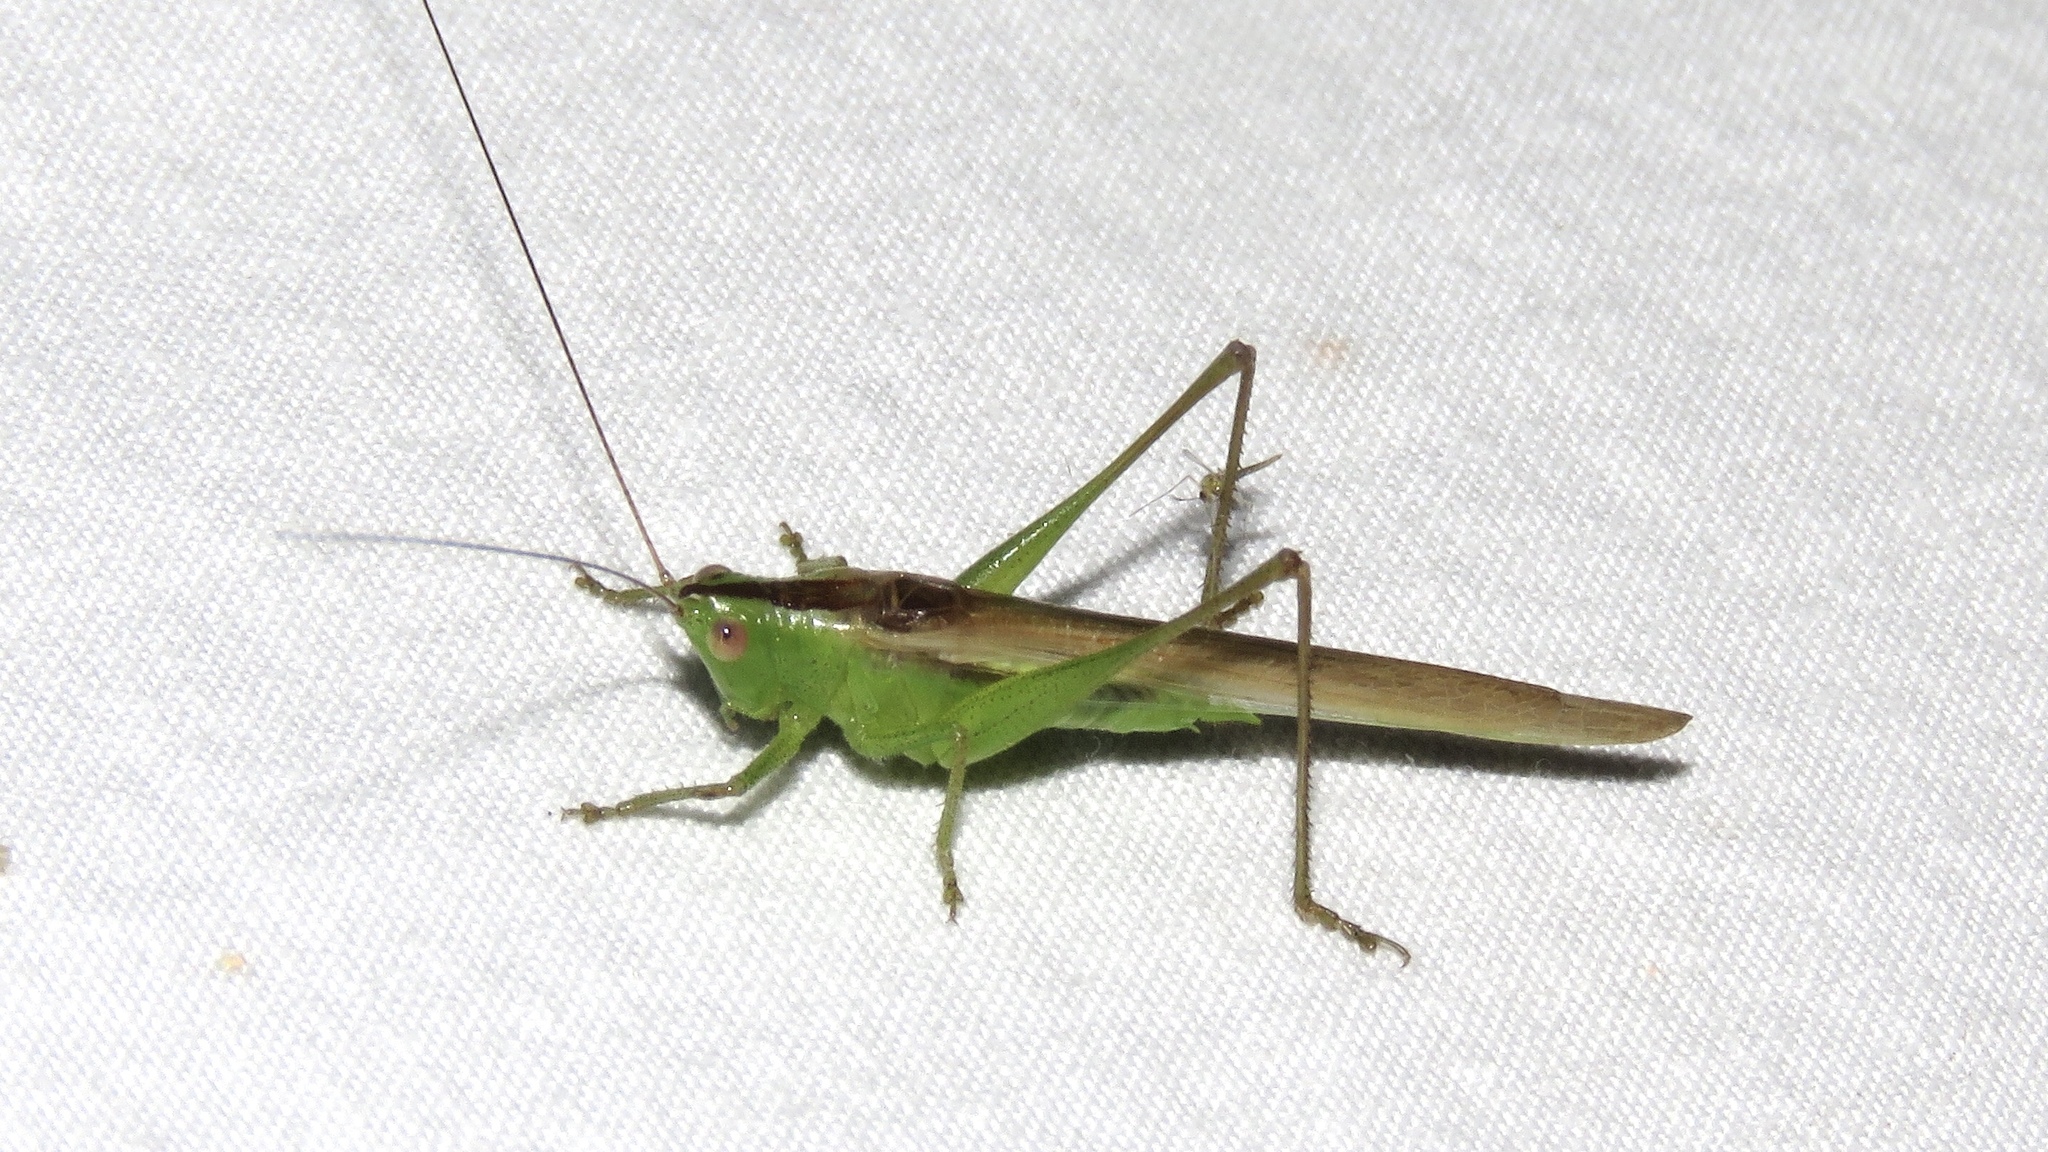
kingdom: Animalia
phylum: Arthropoda
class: Insecta
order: Orthoptera
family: Tettigoniidae
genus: Conocephalus
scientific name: Conocephalus fasciatus
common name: Slender meadow katydid
